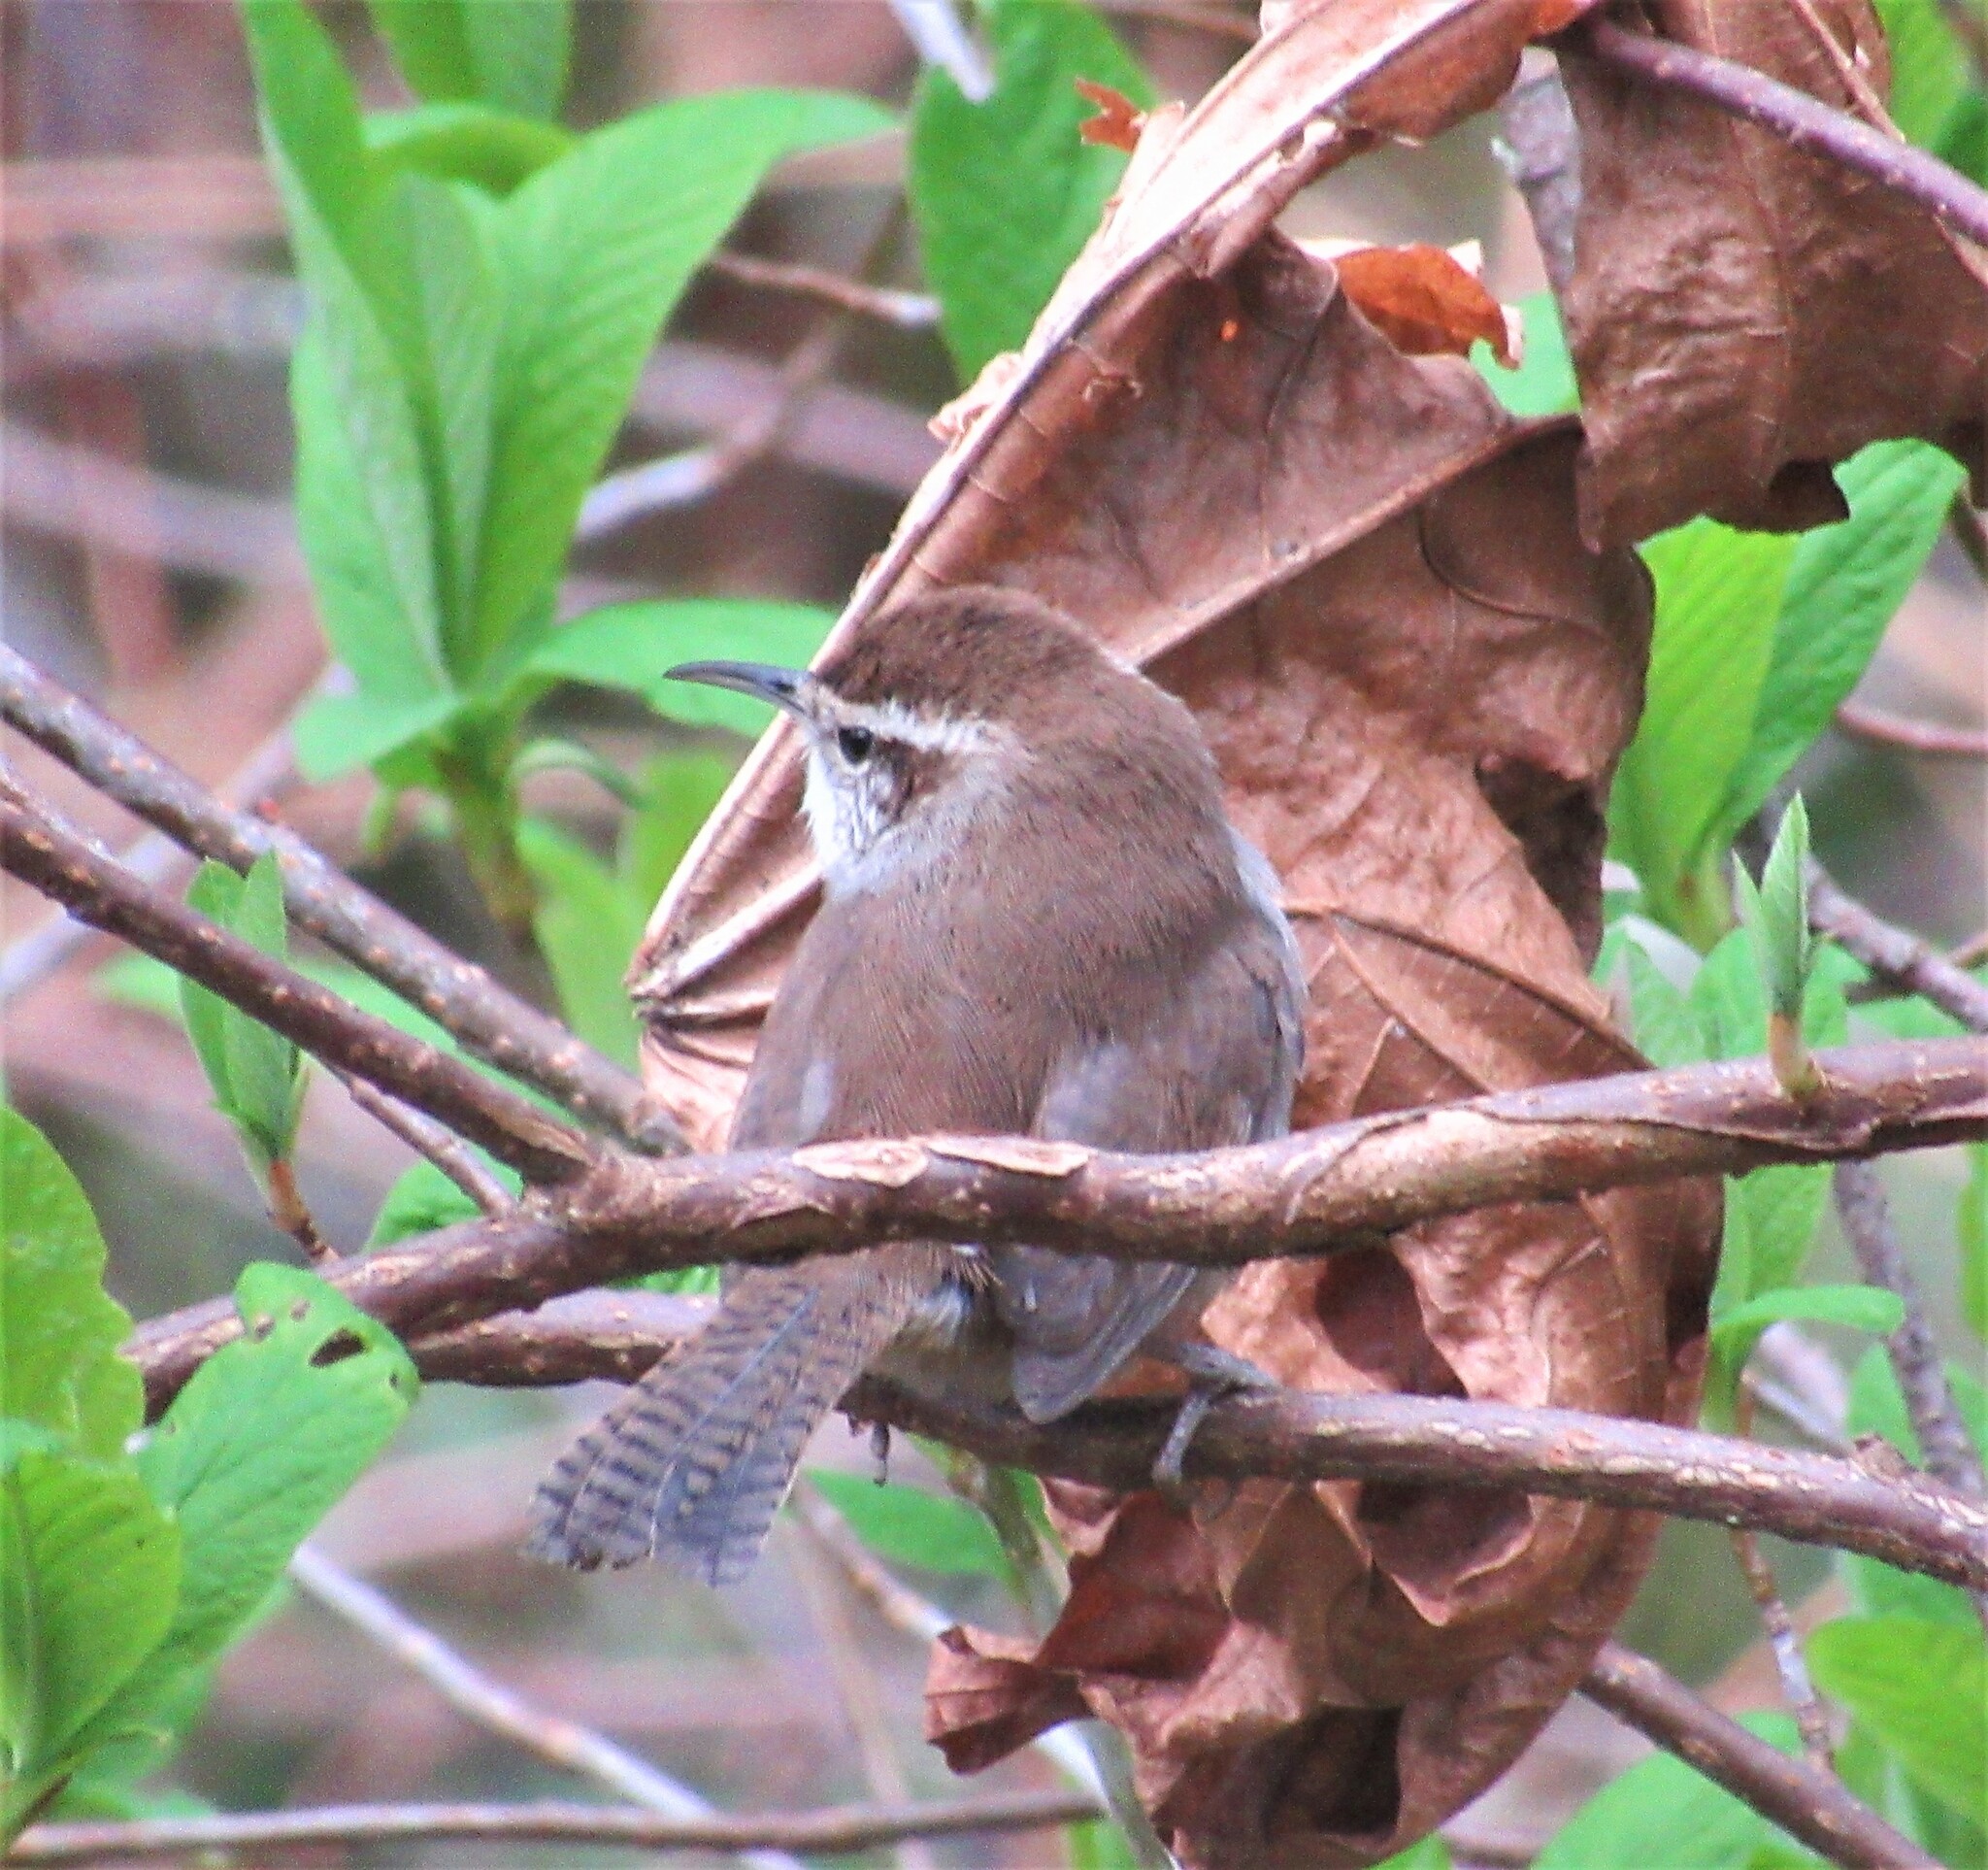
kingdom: Animalia
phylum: Chordata
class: Aves
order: Passeriformes
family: Troglodytidae
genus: Thryomanes
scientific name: Thryomanes bewickii
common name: Bewick's wren
